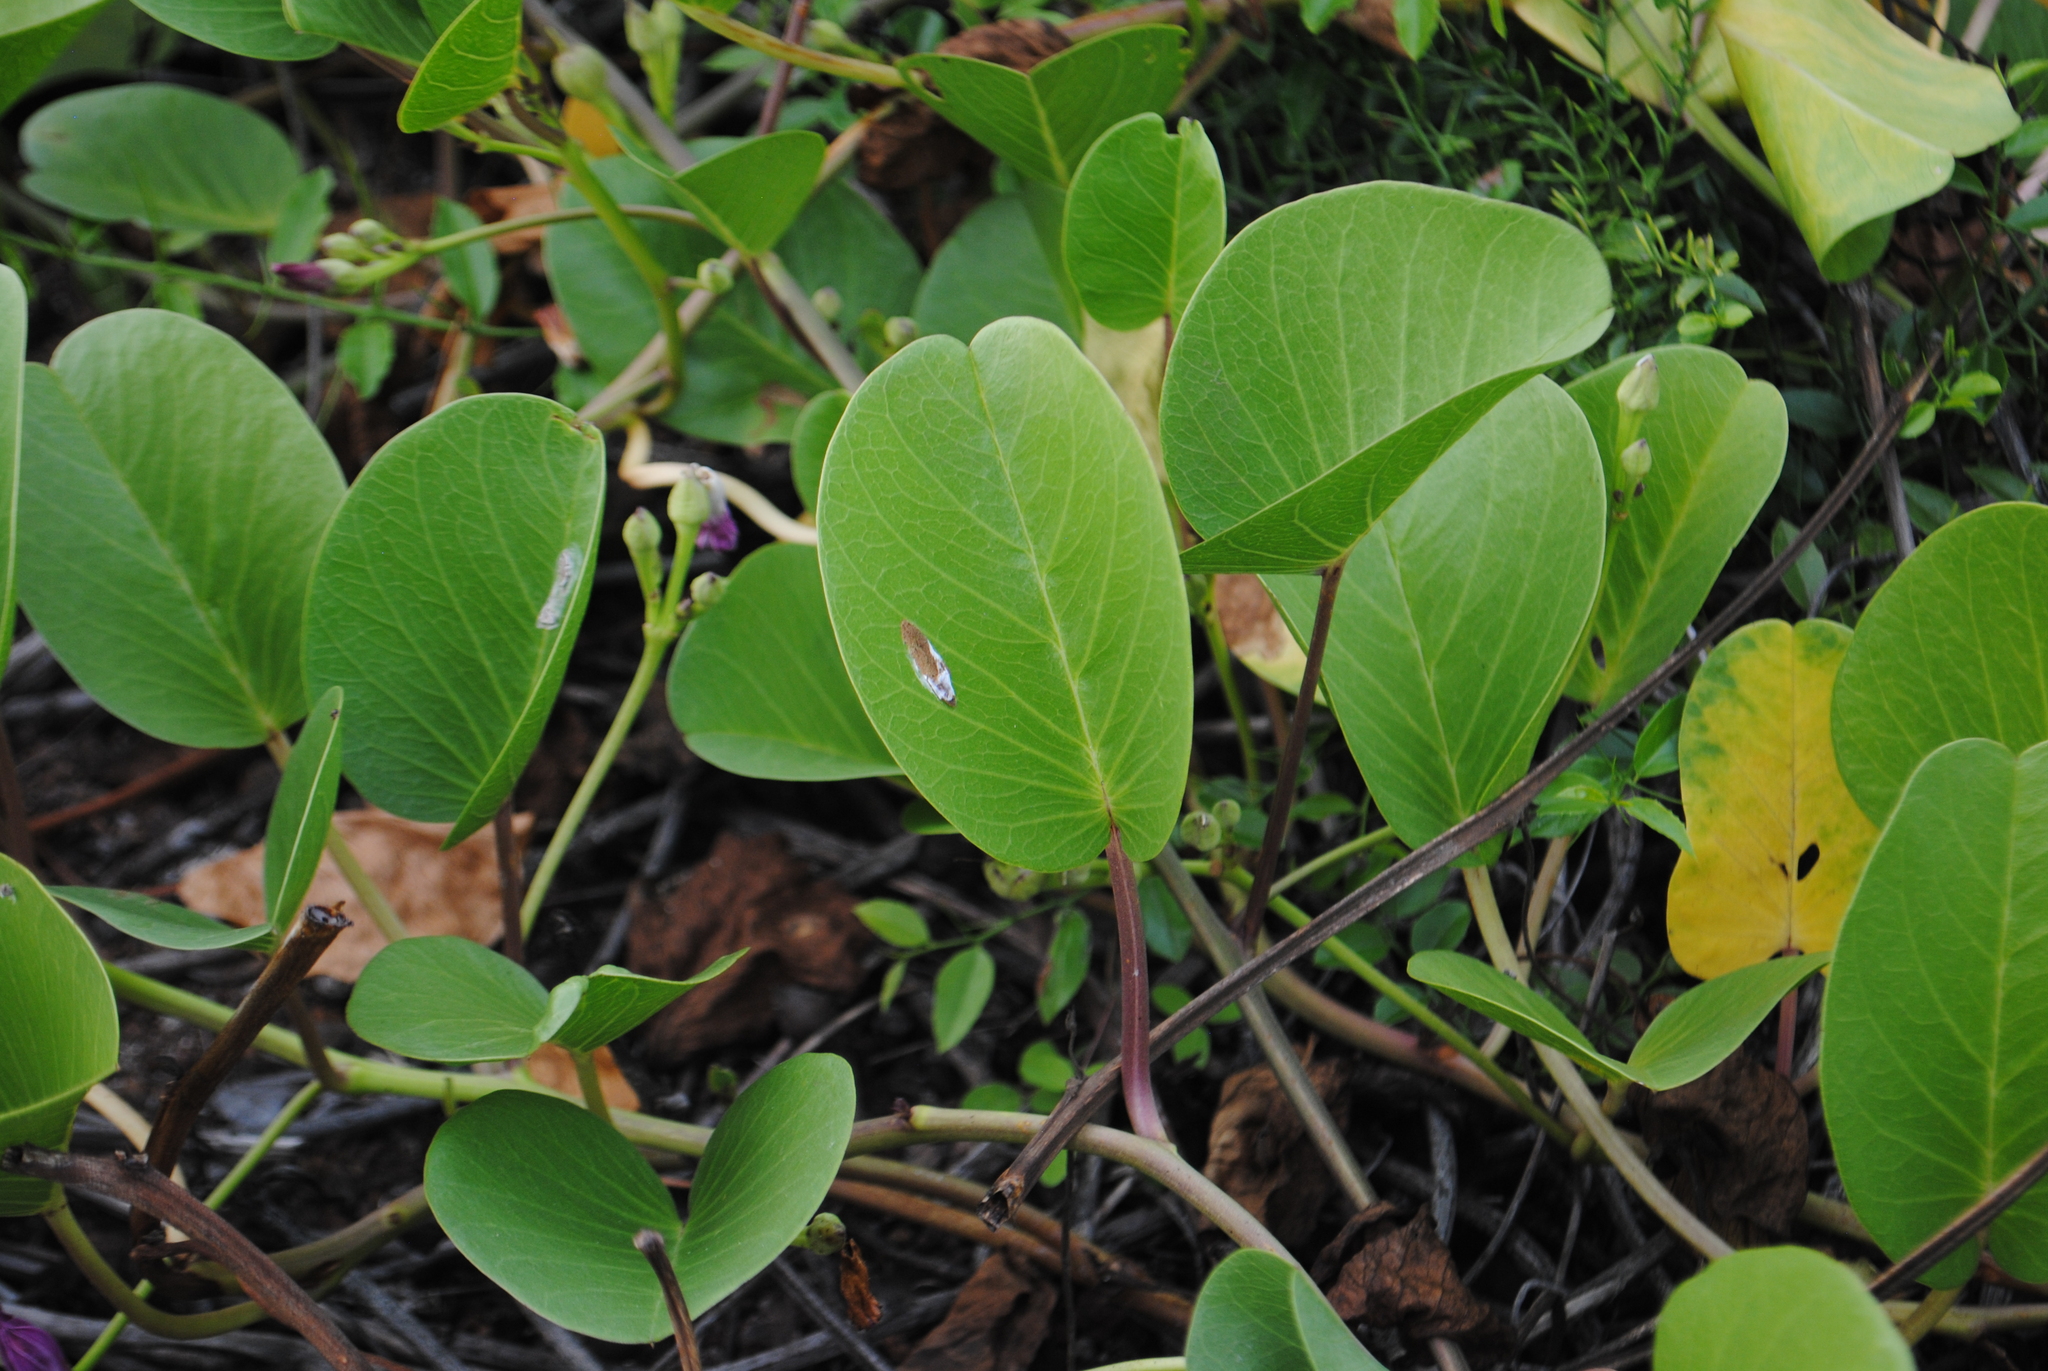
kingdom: Plantae
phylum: Tracheophyta
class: Magnoliopsida
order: Solanales
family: Convolvulaceae
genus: Ipomoea
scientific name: Ipomoea pes-caprae
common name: Beach morning glory
